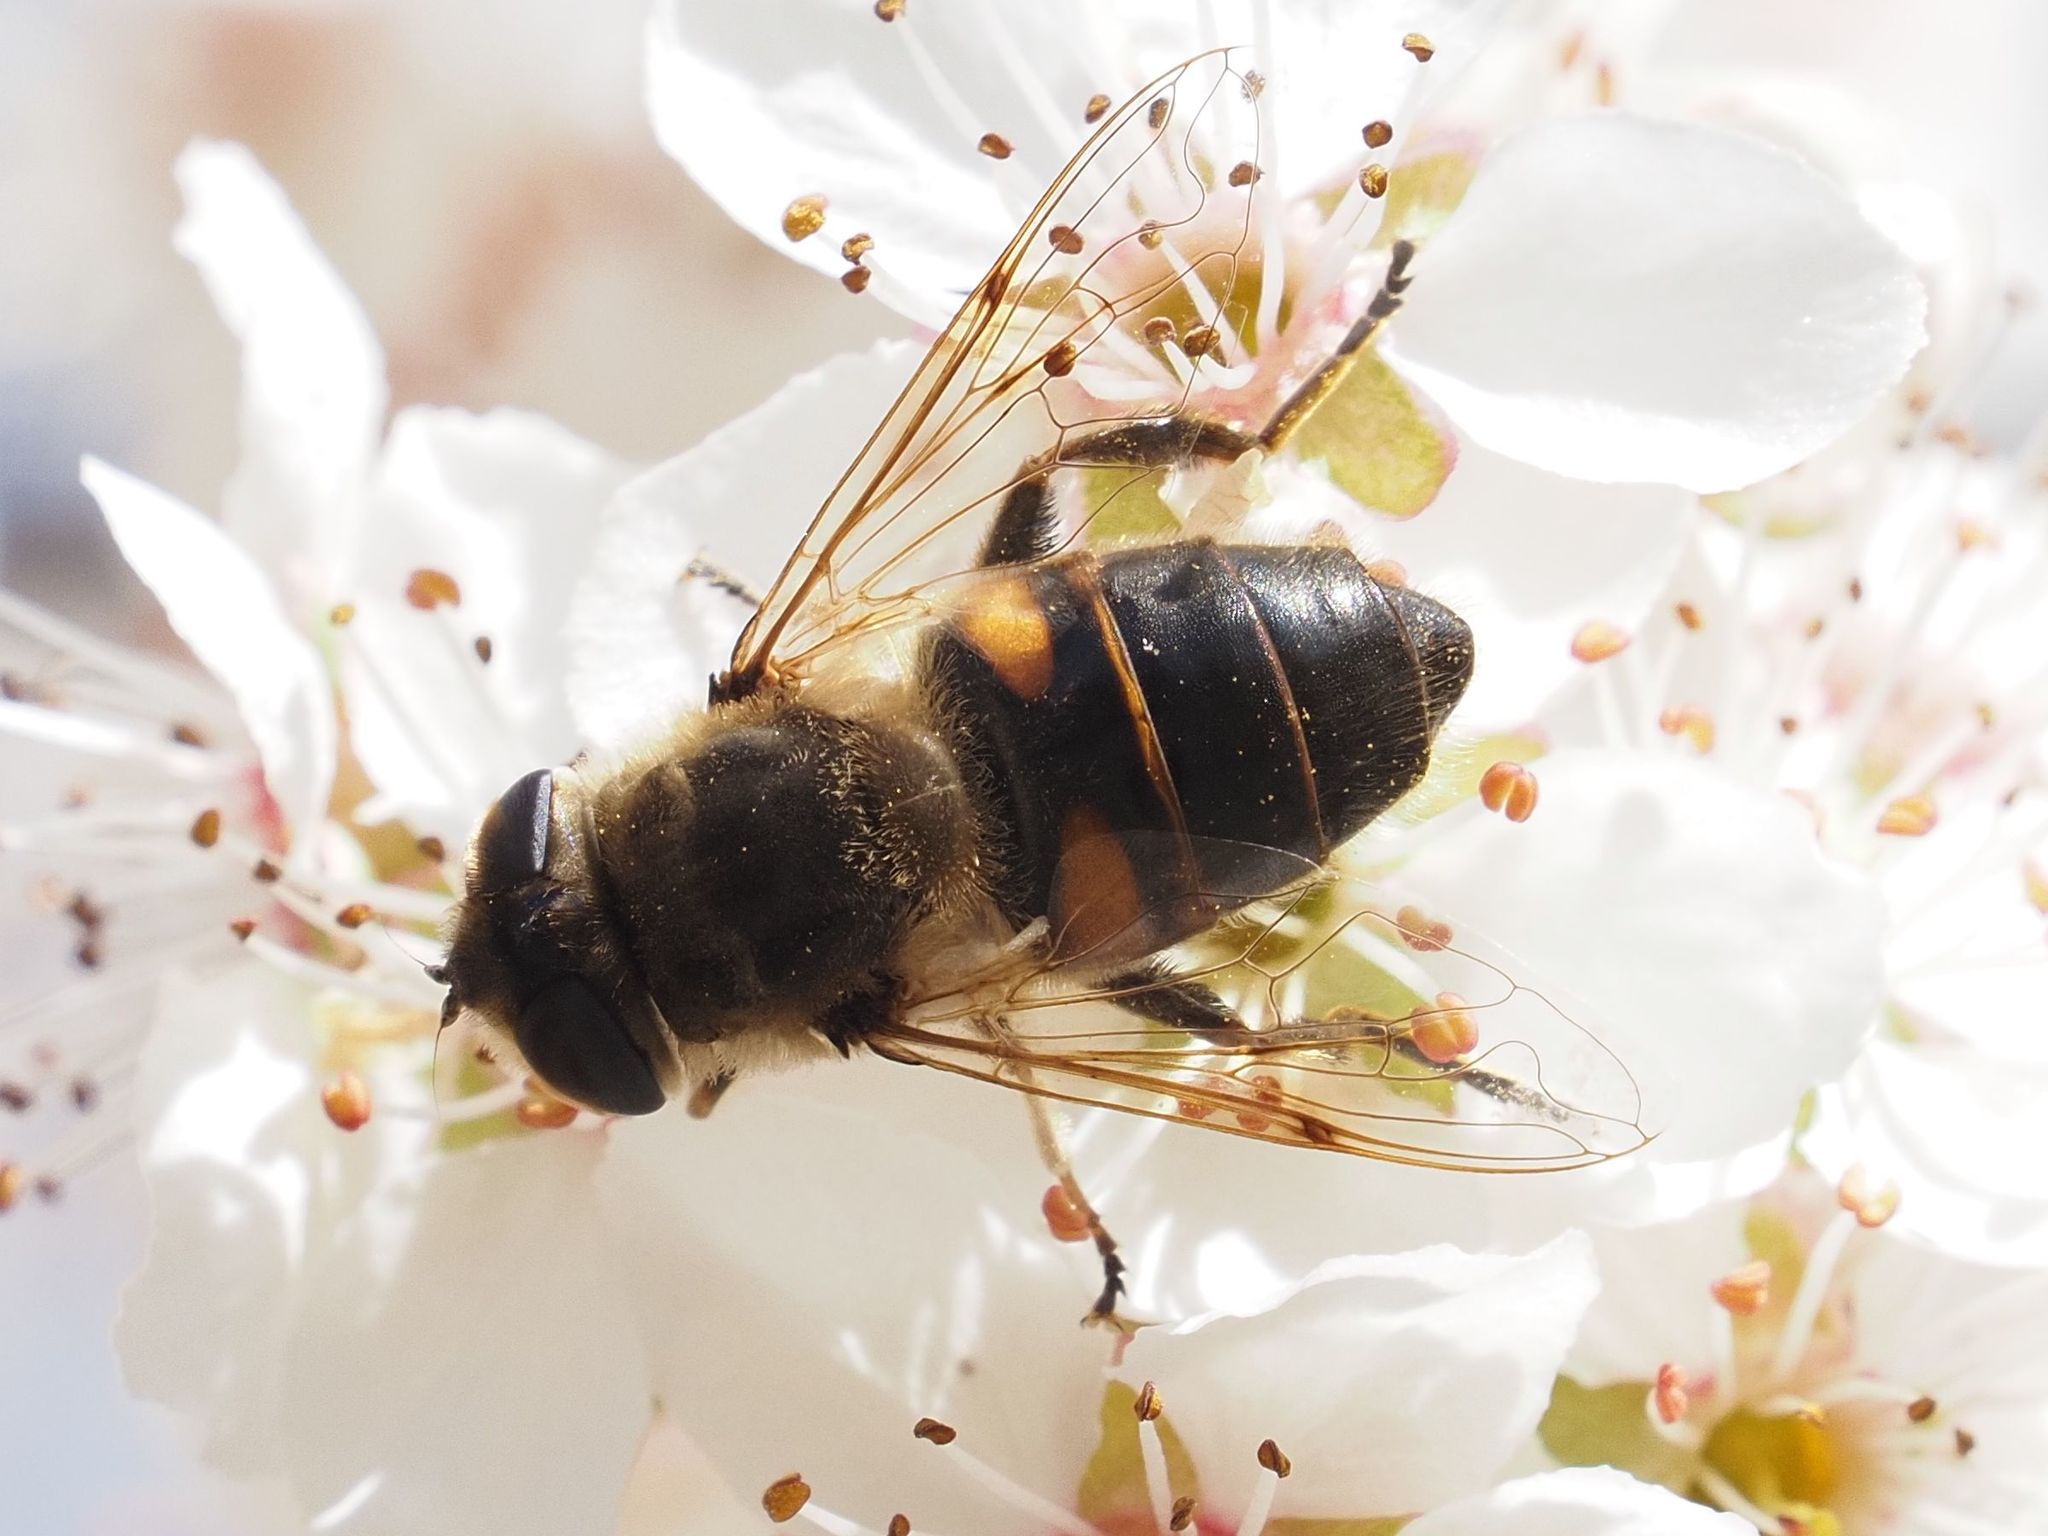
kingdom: Animalia
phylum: Arthropoda
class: Insecta
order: Diptera
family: Syrphidae
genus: Eristalis
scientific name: Eristalis tenax
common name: Drone fly
